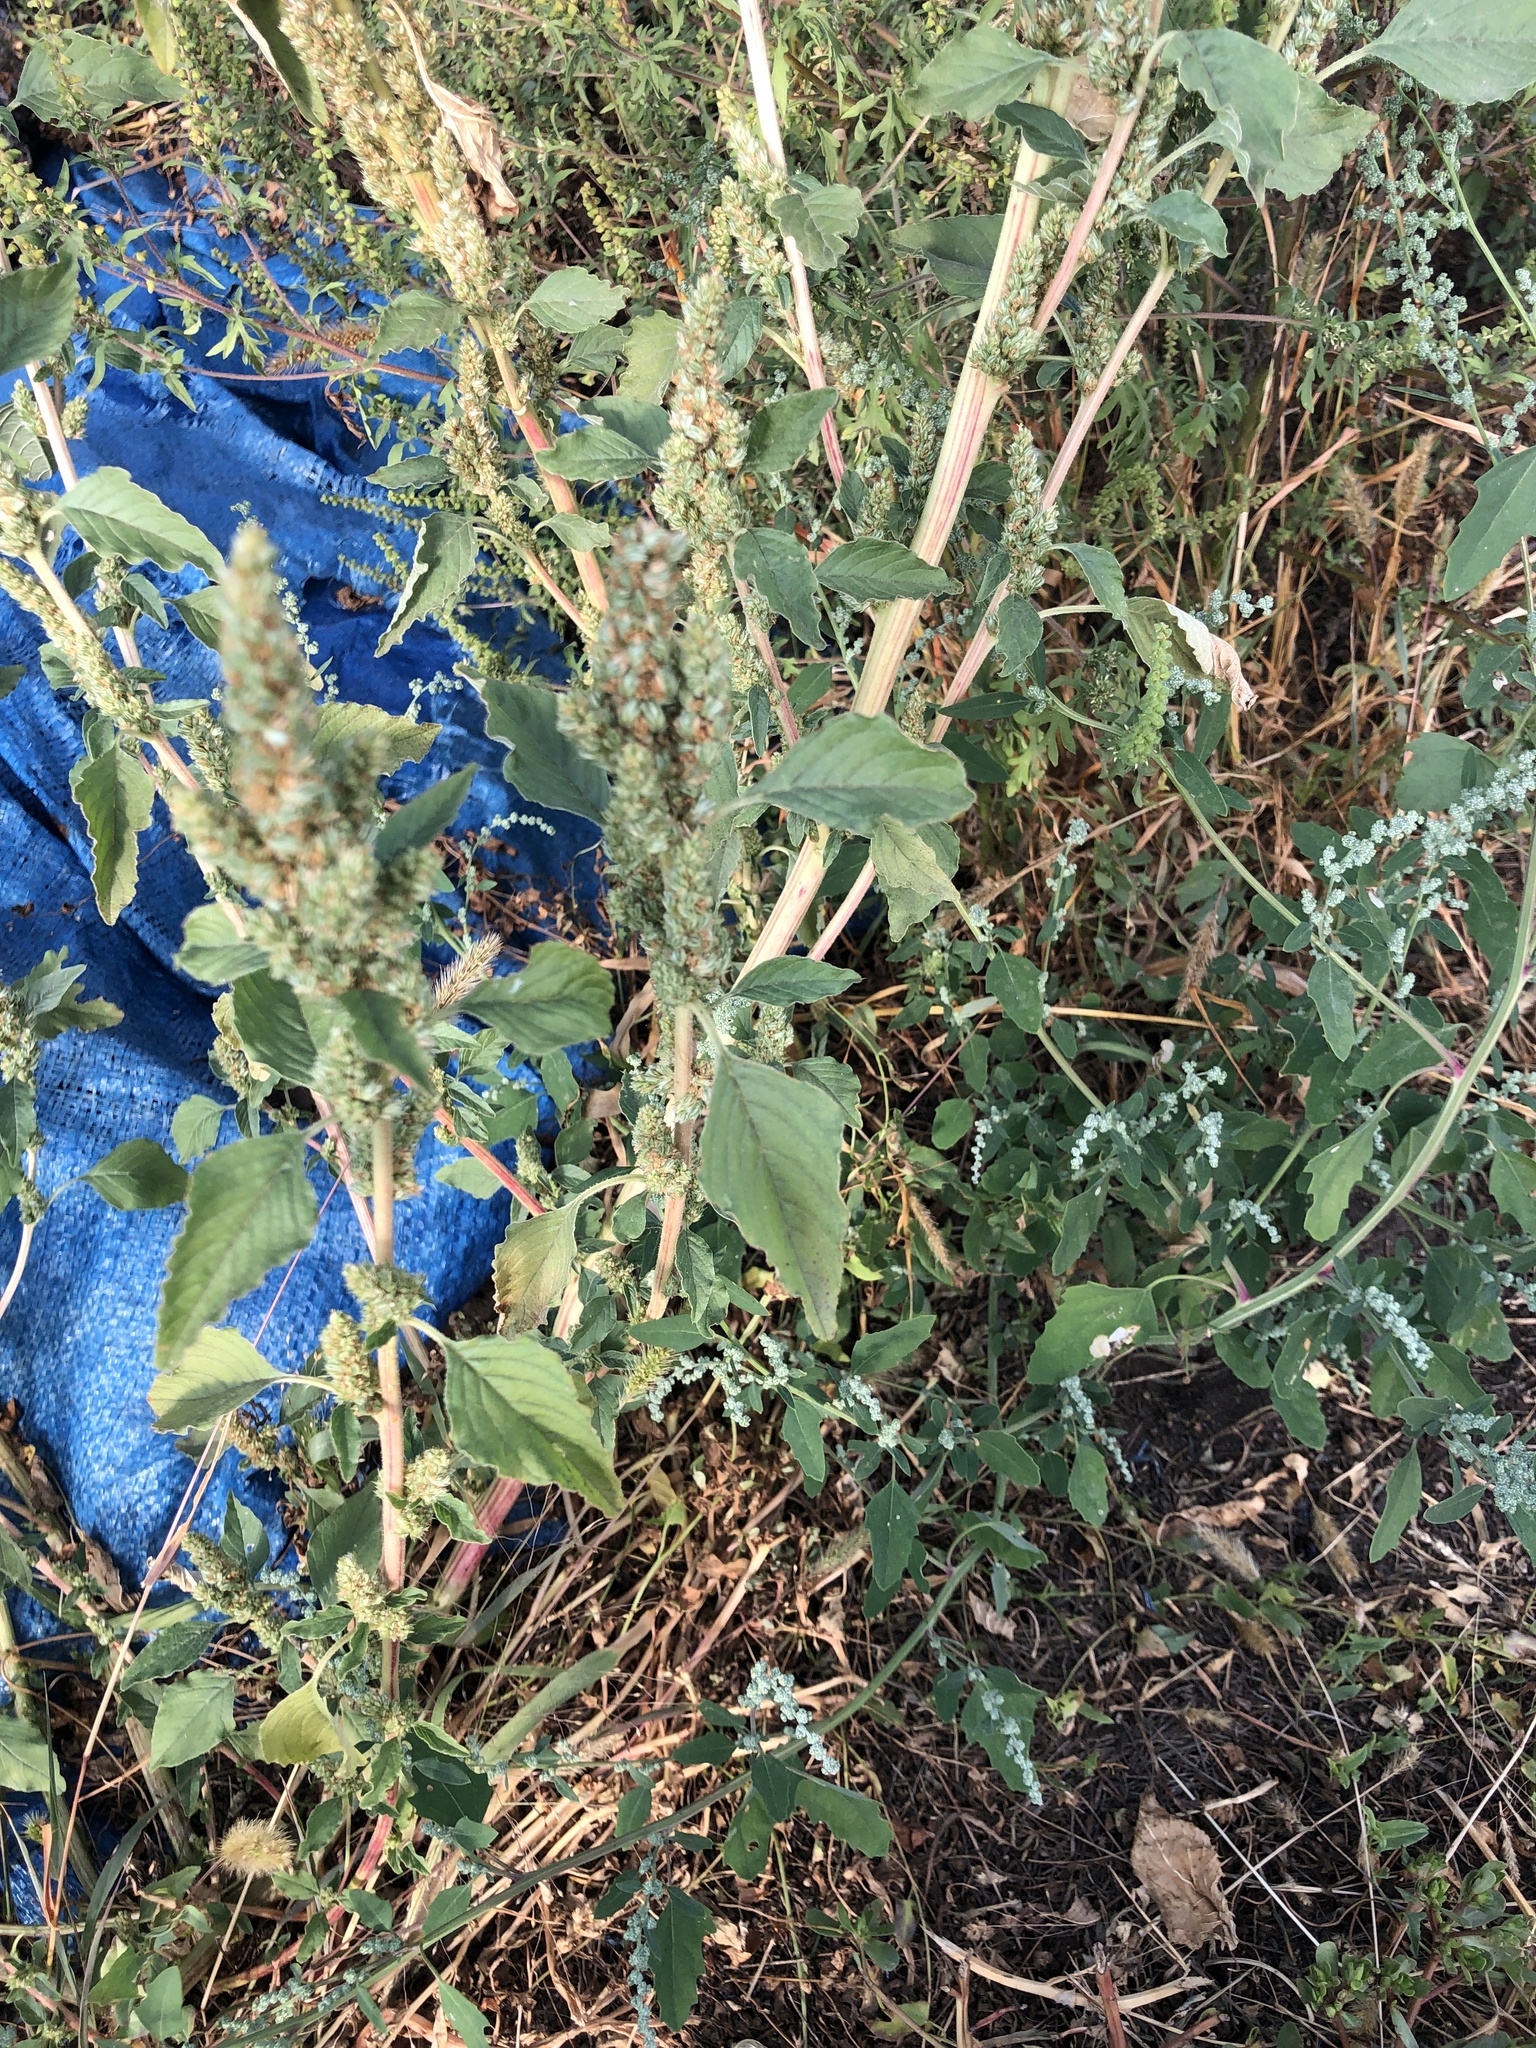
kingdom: Plantae
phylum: Tracheophyta
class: Magnoliopsida
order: Caryophyllales
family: Amaranthaceae
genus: Amaranthus
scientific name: Amaranthus retroflexus
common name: Redroot amaranth
